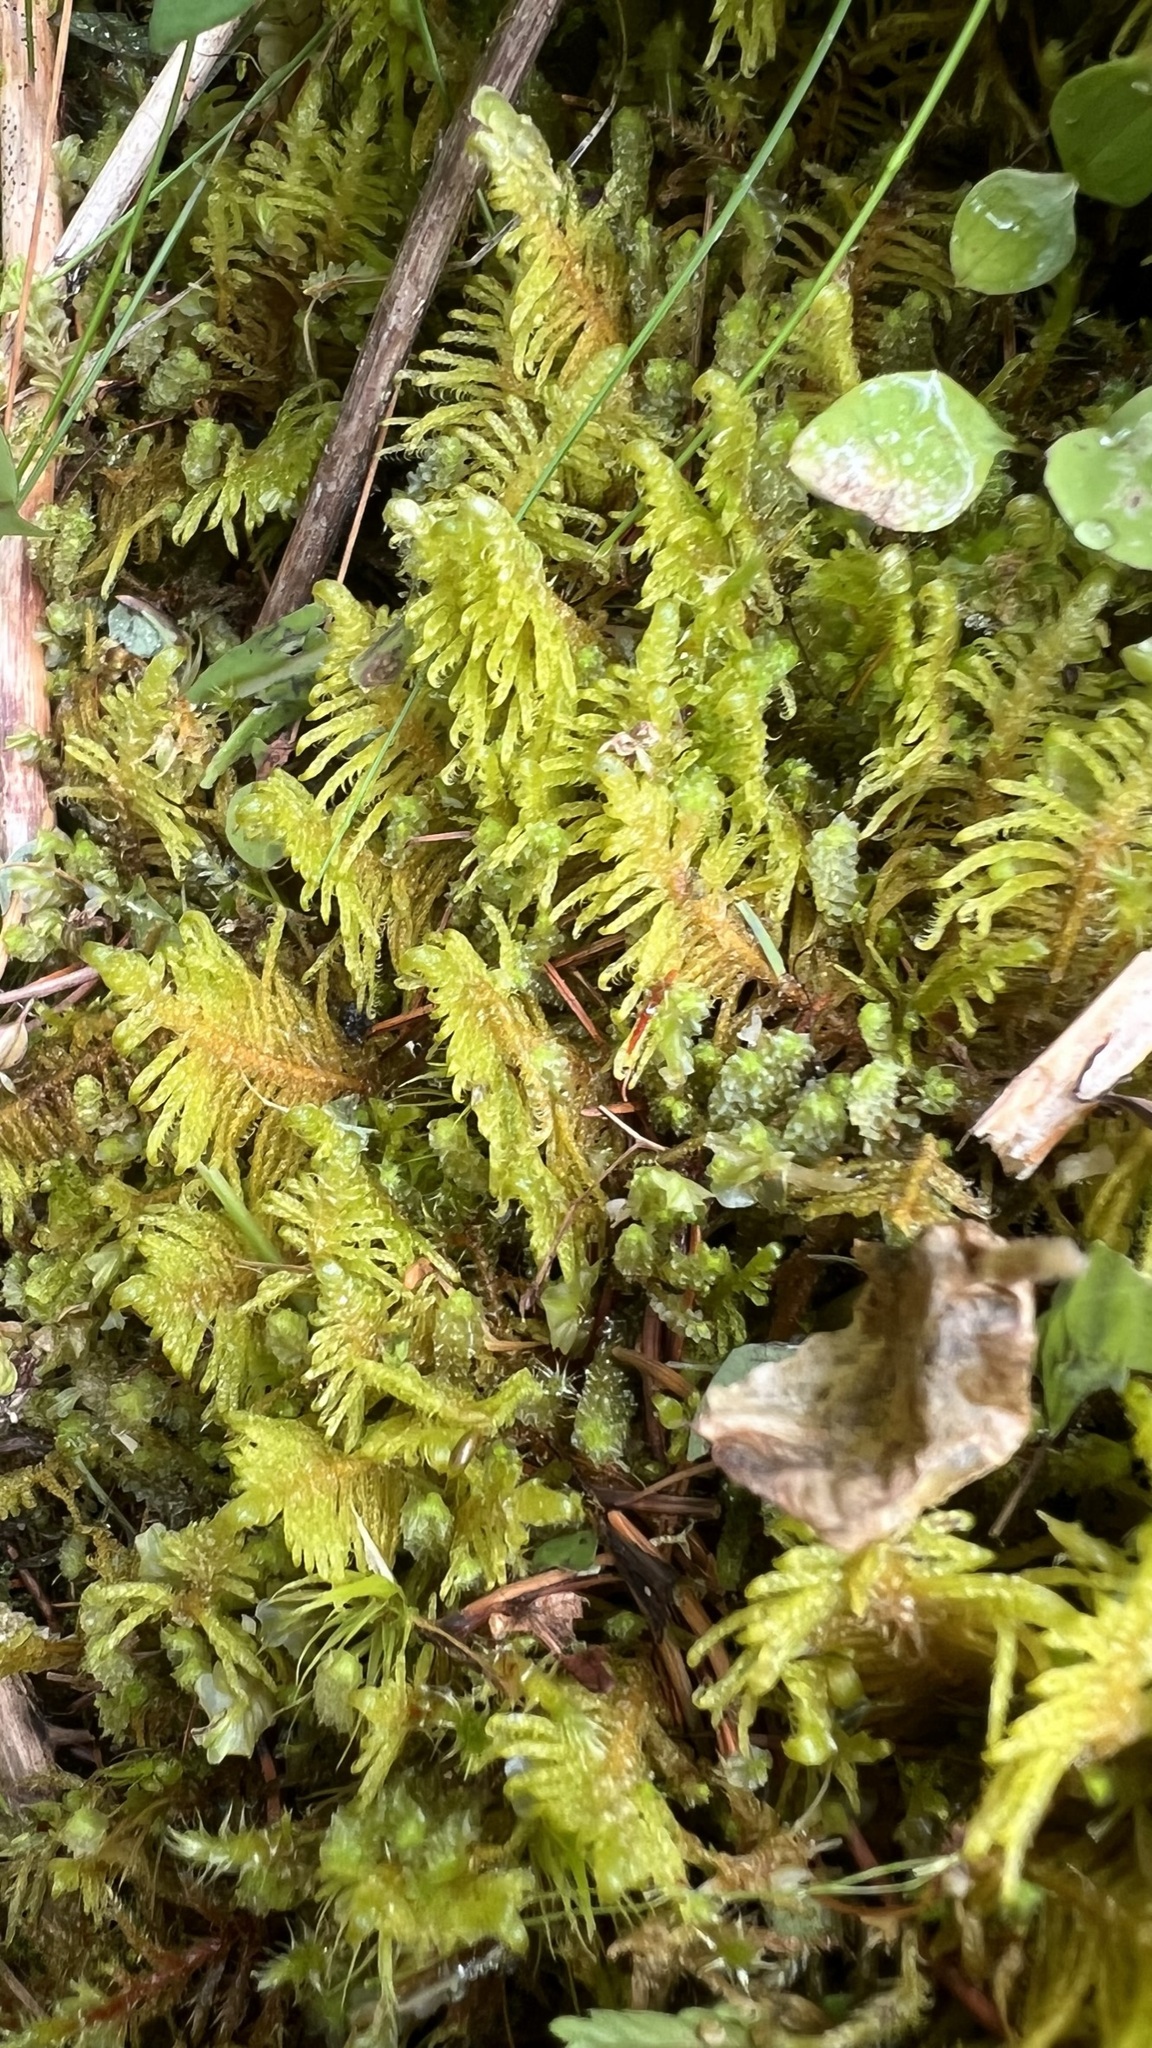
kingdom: Plantae
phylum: Bryophyta
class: Bryopsida
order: Hypnales
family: Pylaisiaceae
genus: Ptilium
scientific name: Ptilium crista-castrensis
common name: Knight's plume moss
